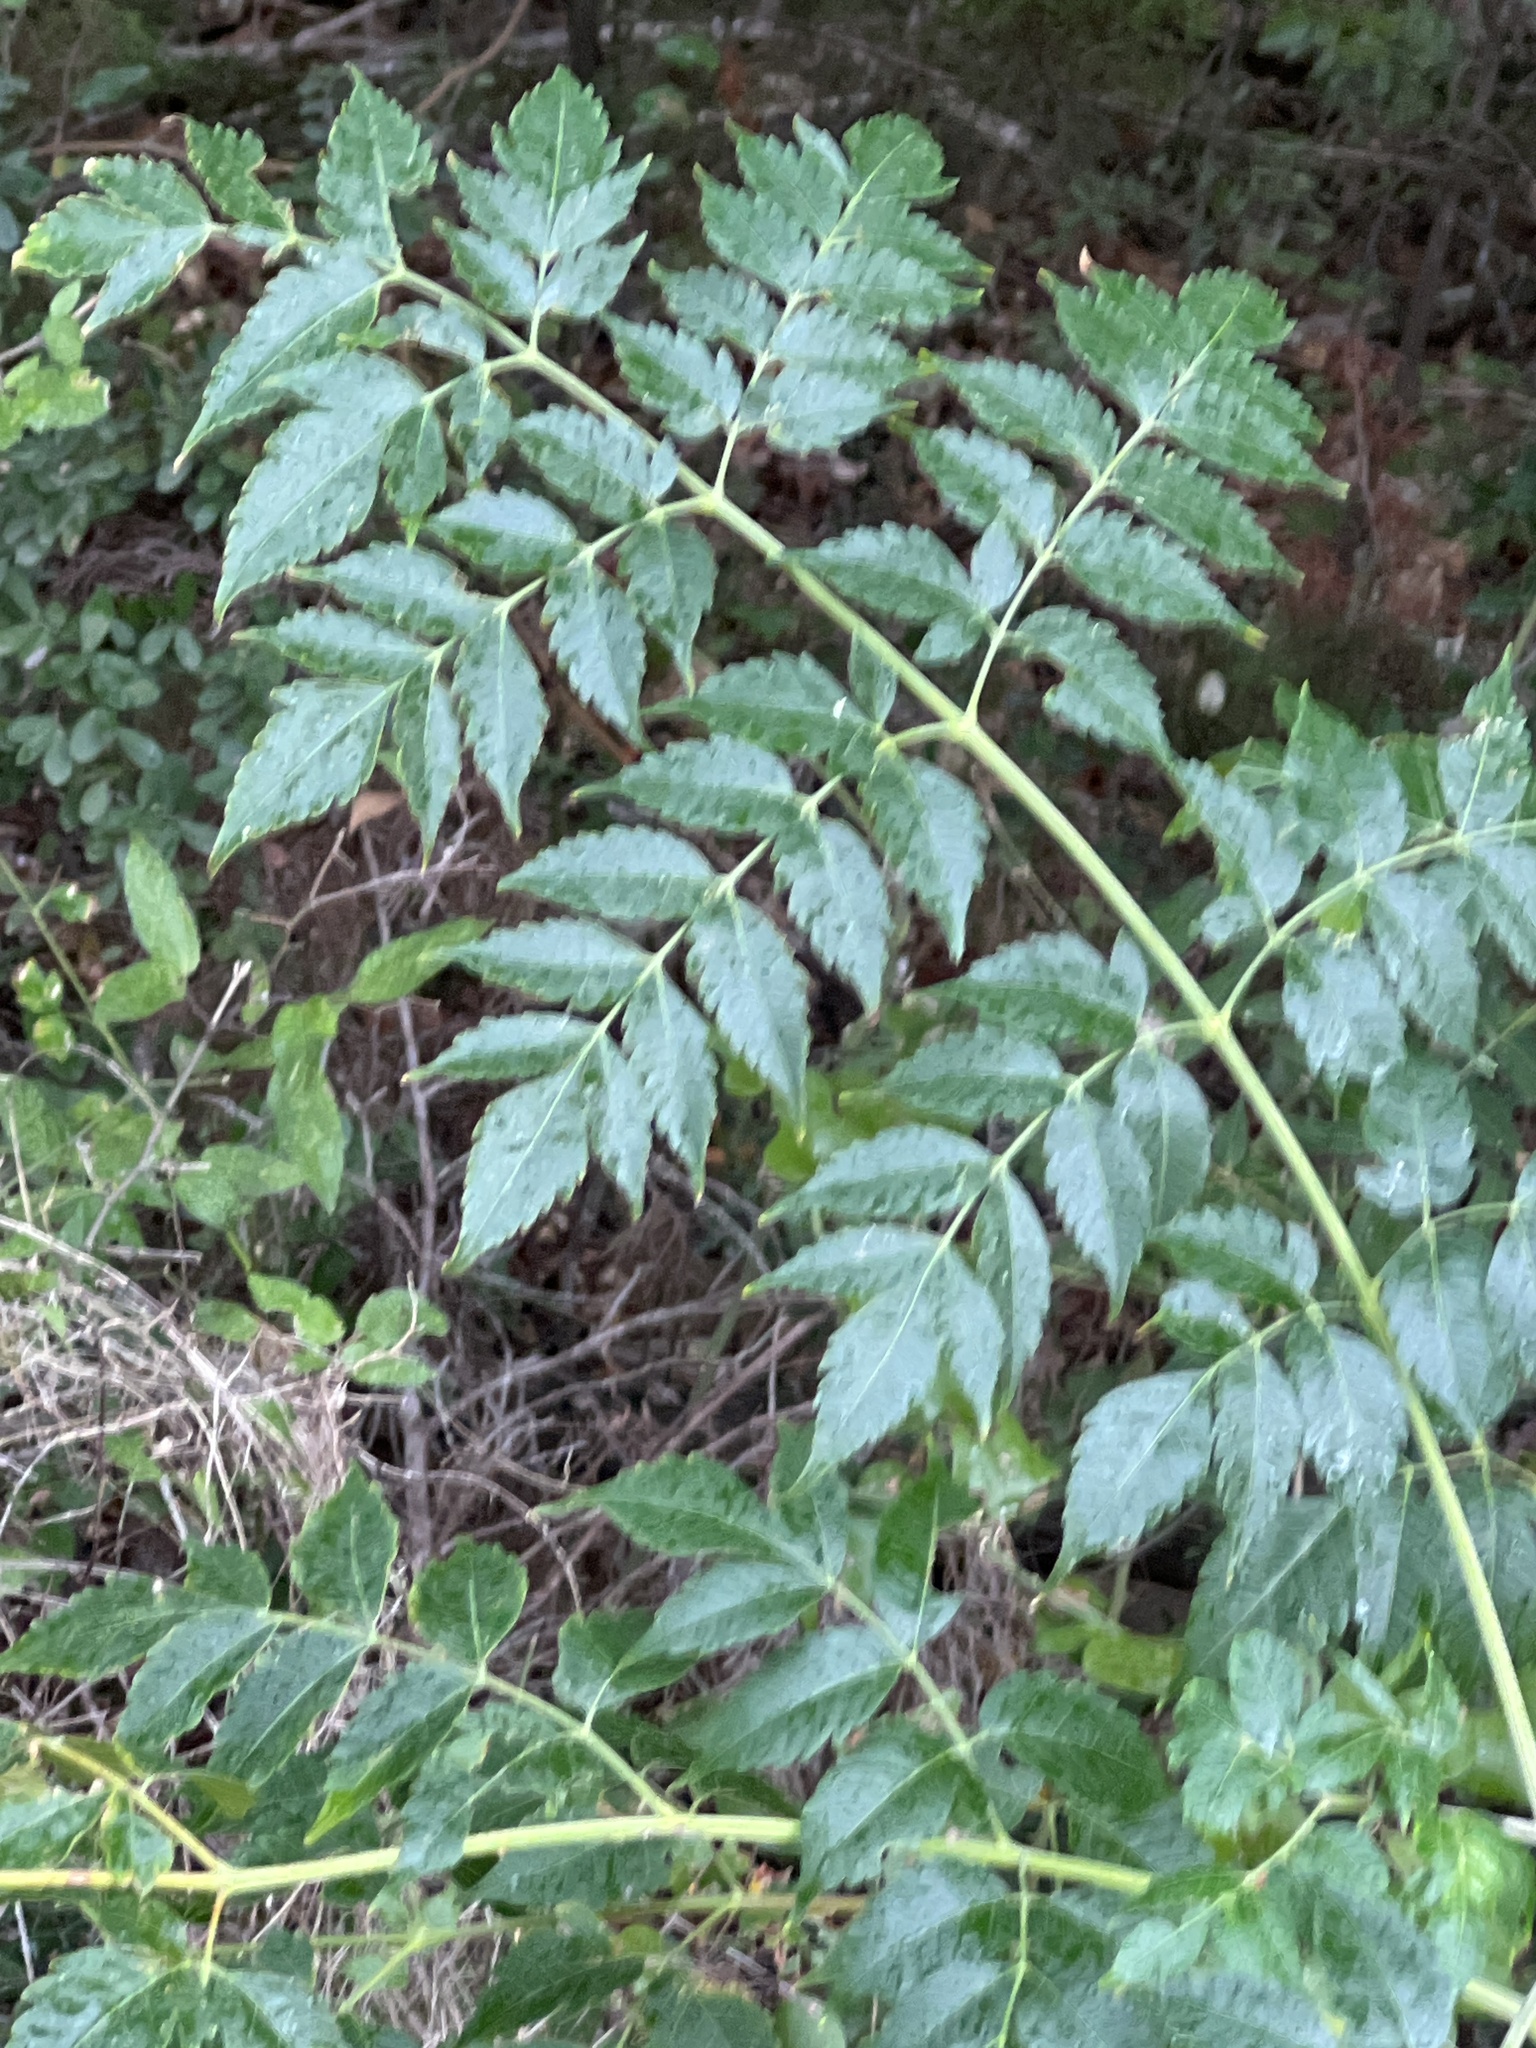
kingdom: Plantae
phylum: Tracheophyta
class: Magnoliopsida
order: Sapindales
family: Meliaceae
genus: Melia
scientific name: Melia azedarach
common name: Chinaberrytree
